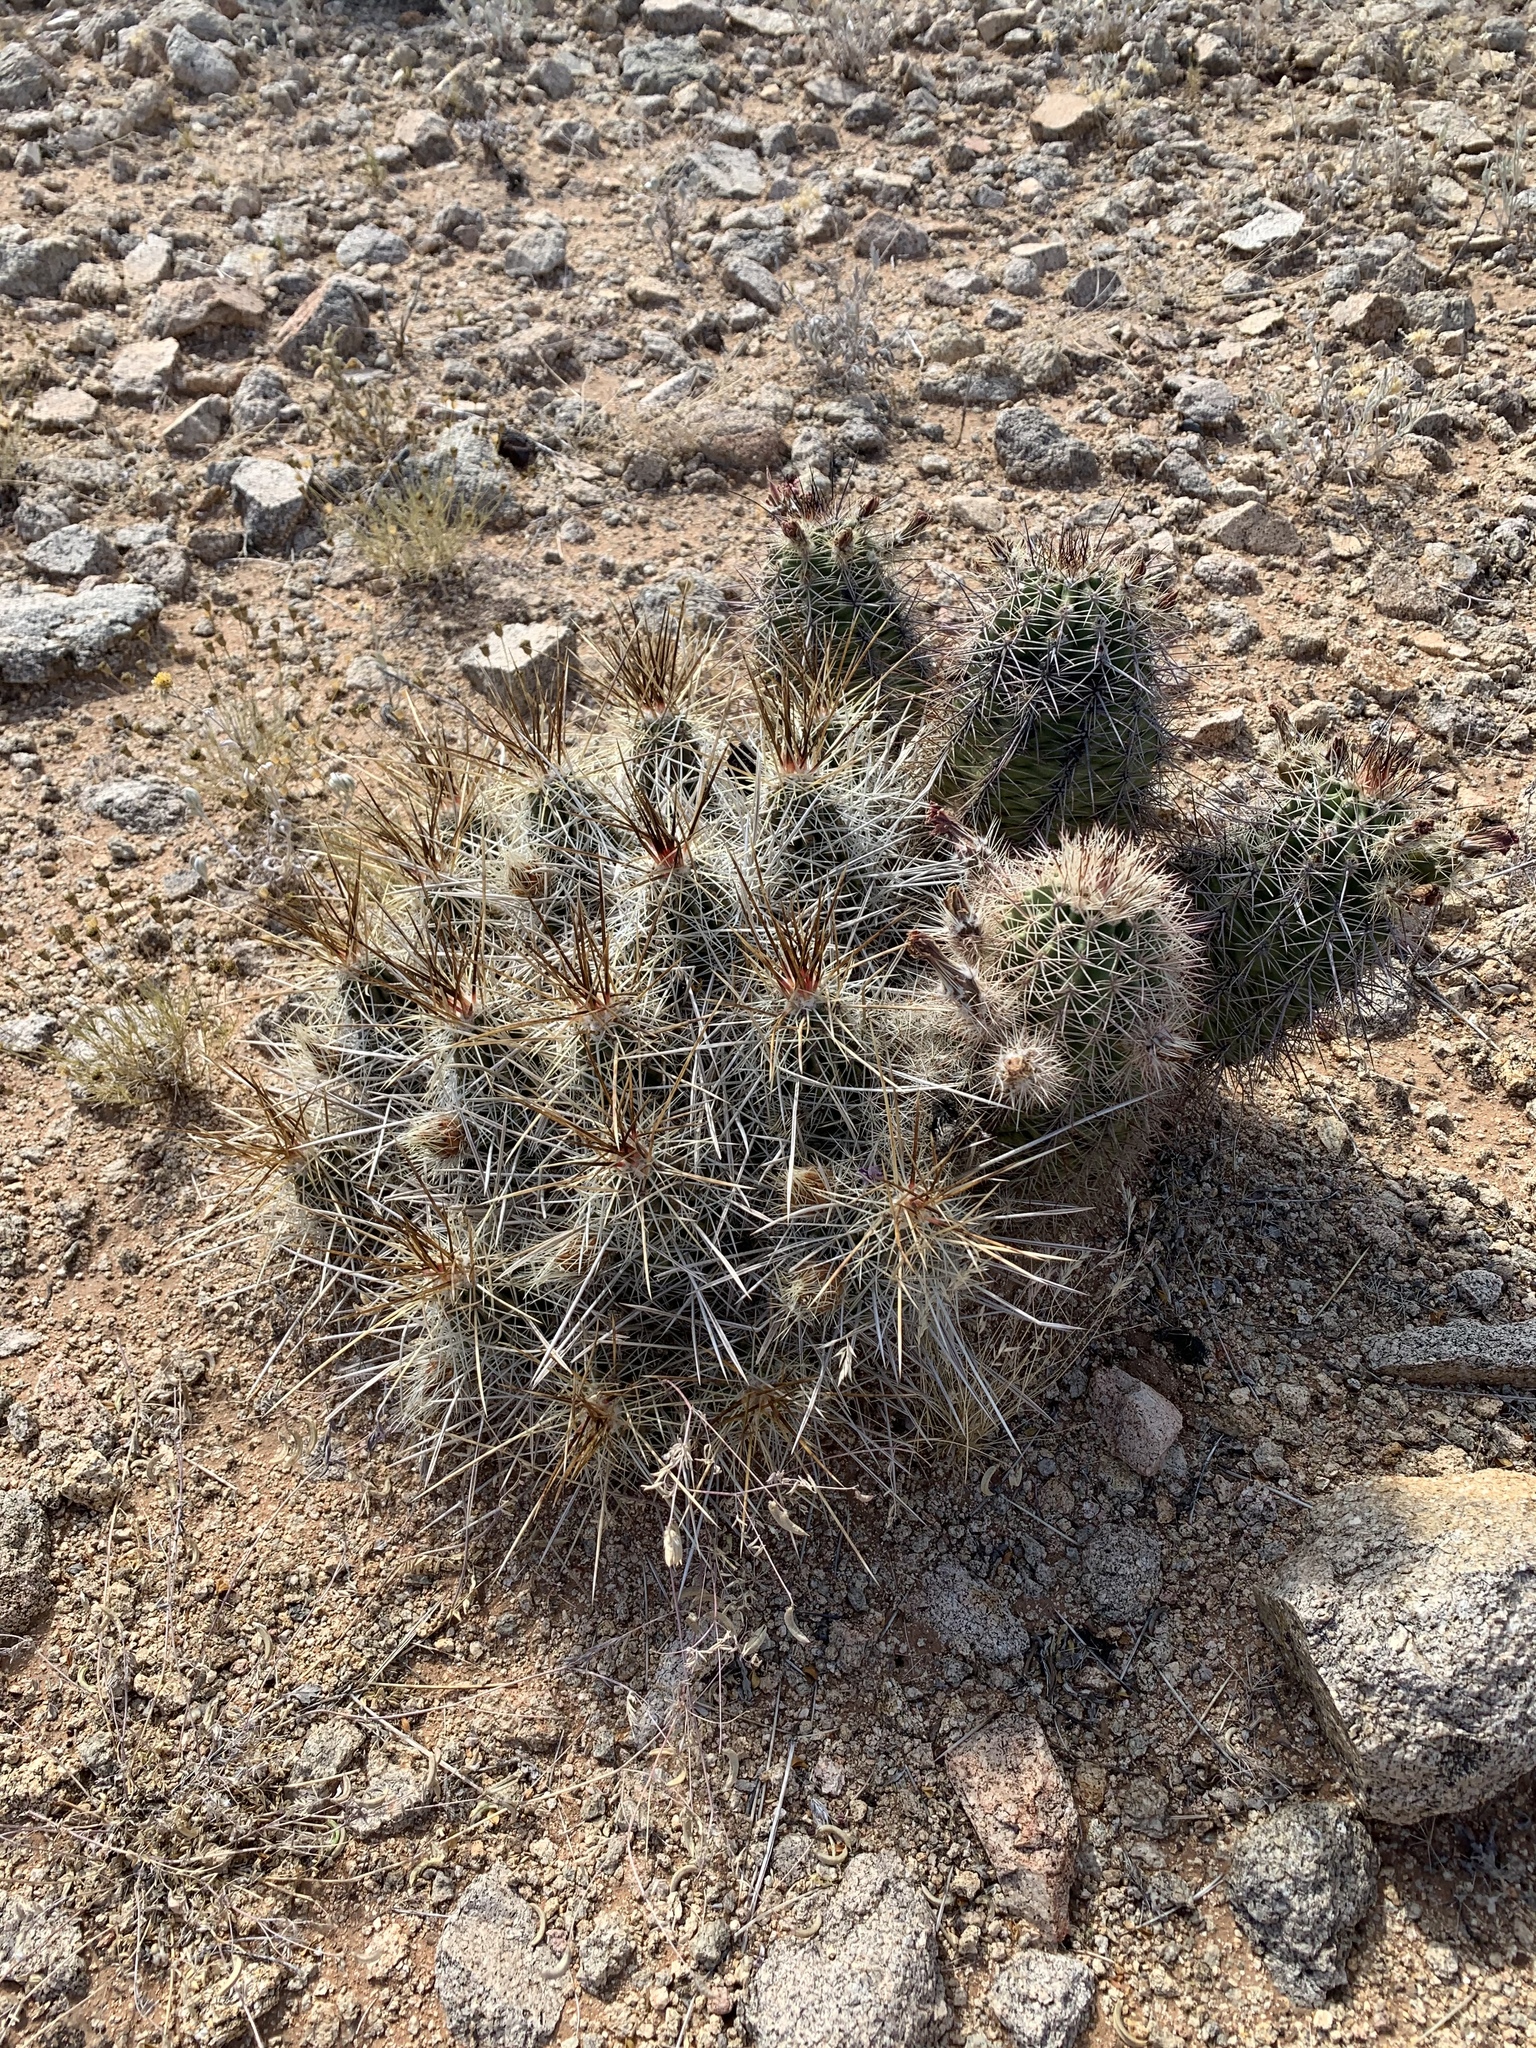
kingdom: Plantae
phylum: Tracheophyta
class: Magnoliopsida
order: Caryophyllales
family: Cactaceae
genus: Echinocereus
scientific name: Echinocereus stramineus
